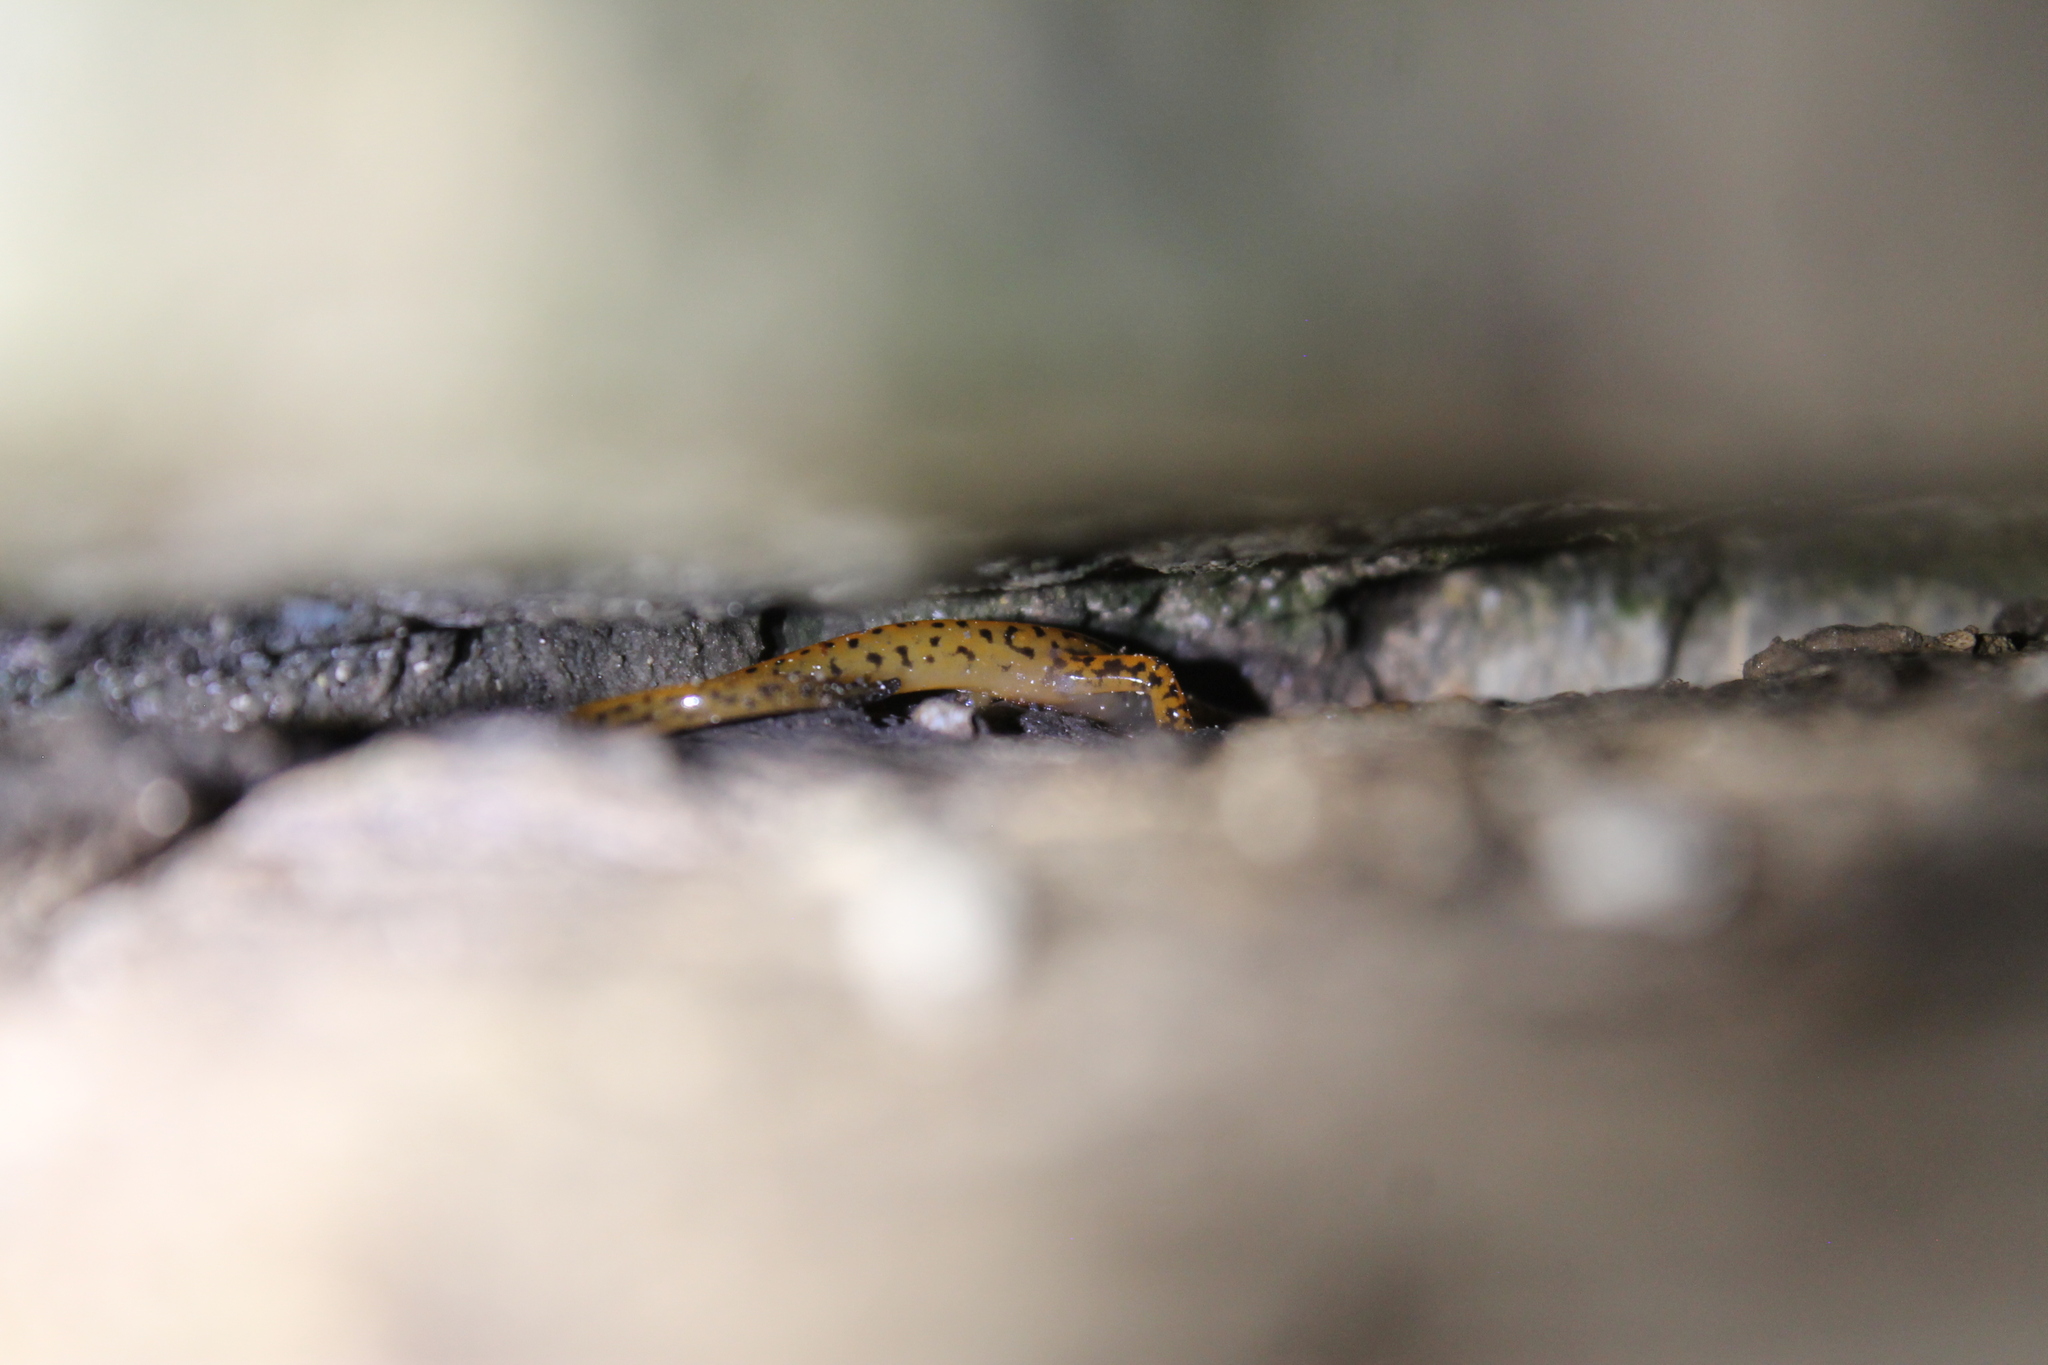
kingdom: Animalia
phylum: Chordata
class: Amphibia
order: Caudata
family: Plethodontidae
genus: Eurycea
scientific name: Eurycea lucifuga
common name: Cave salamander
